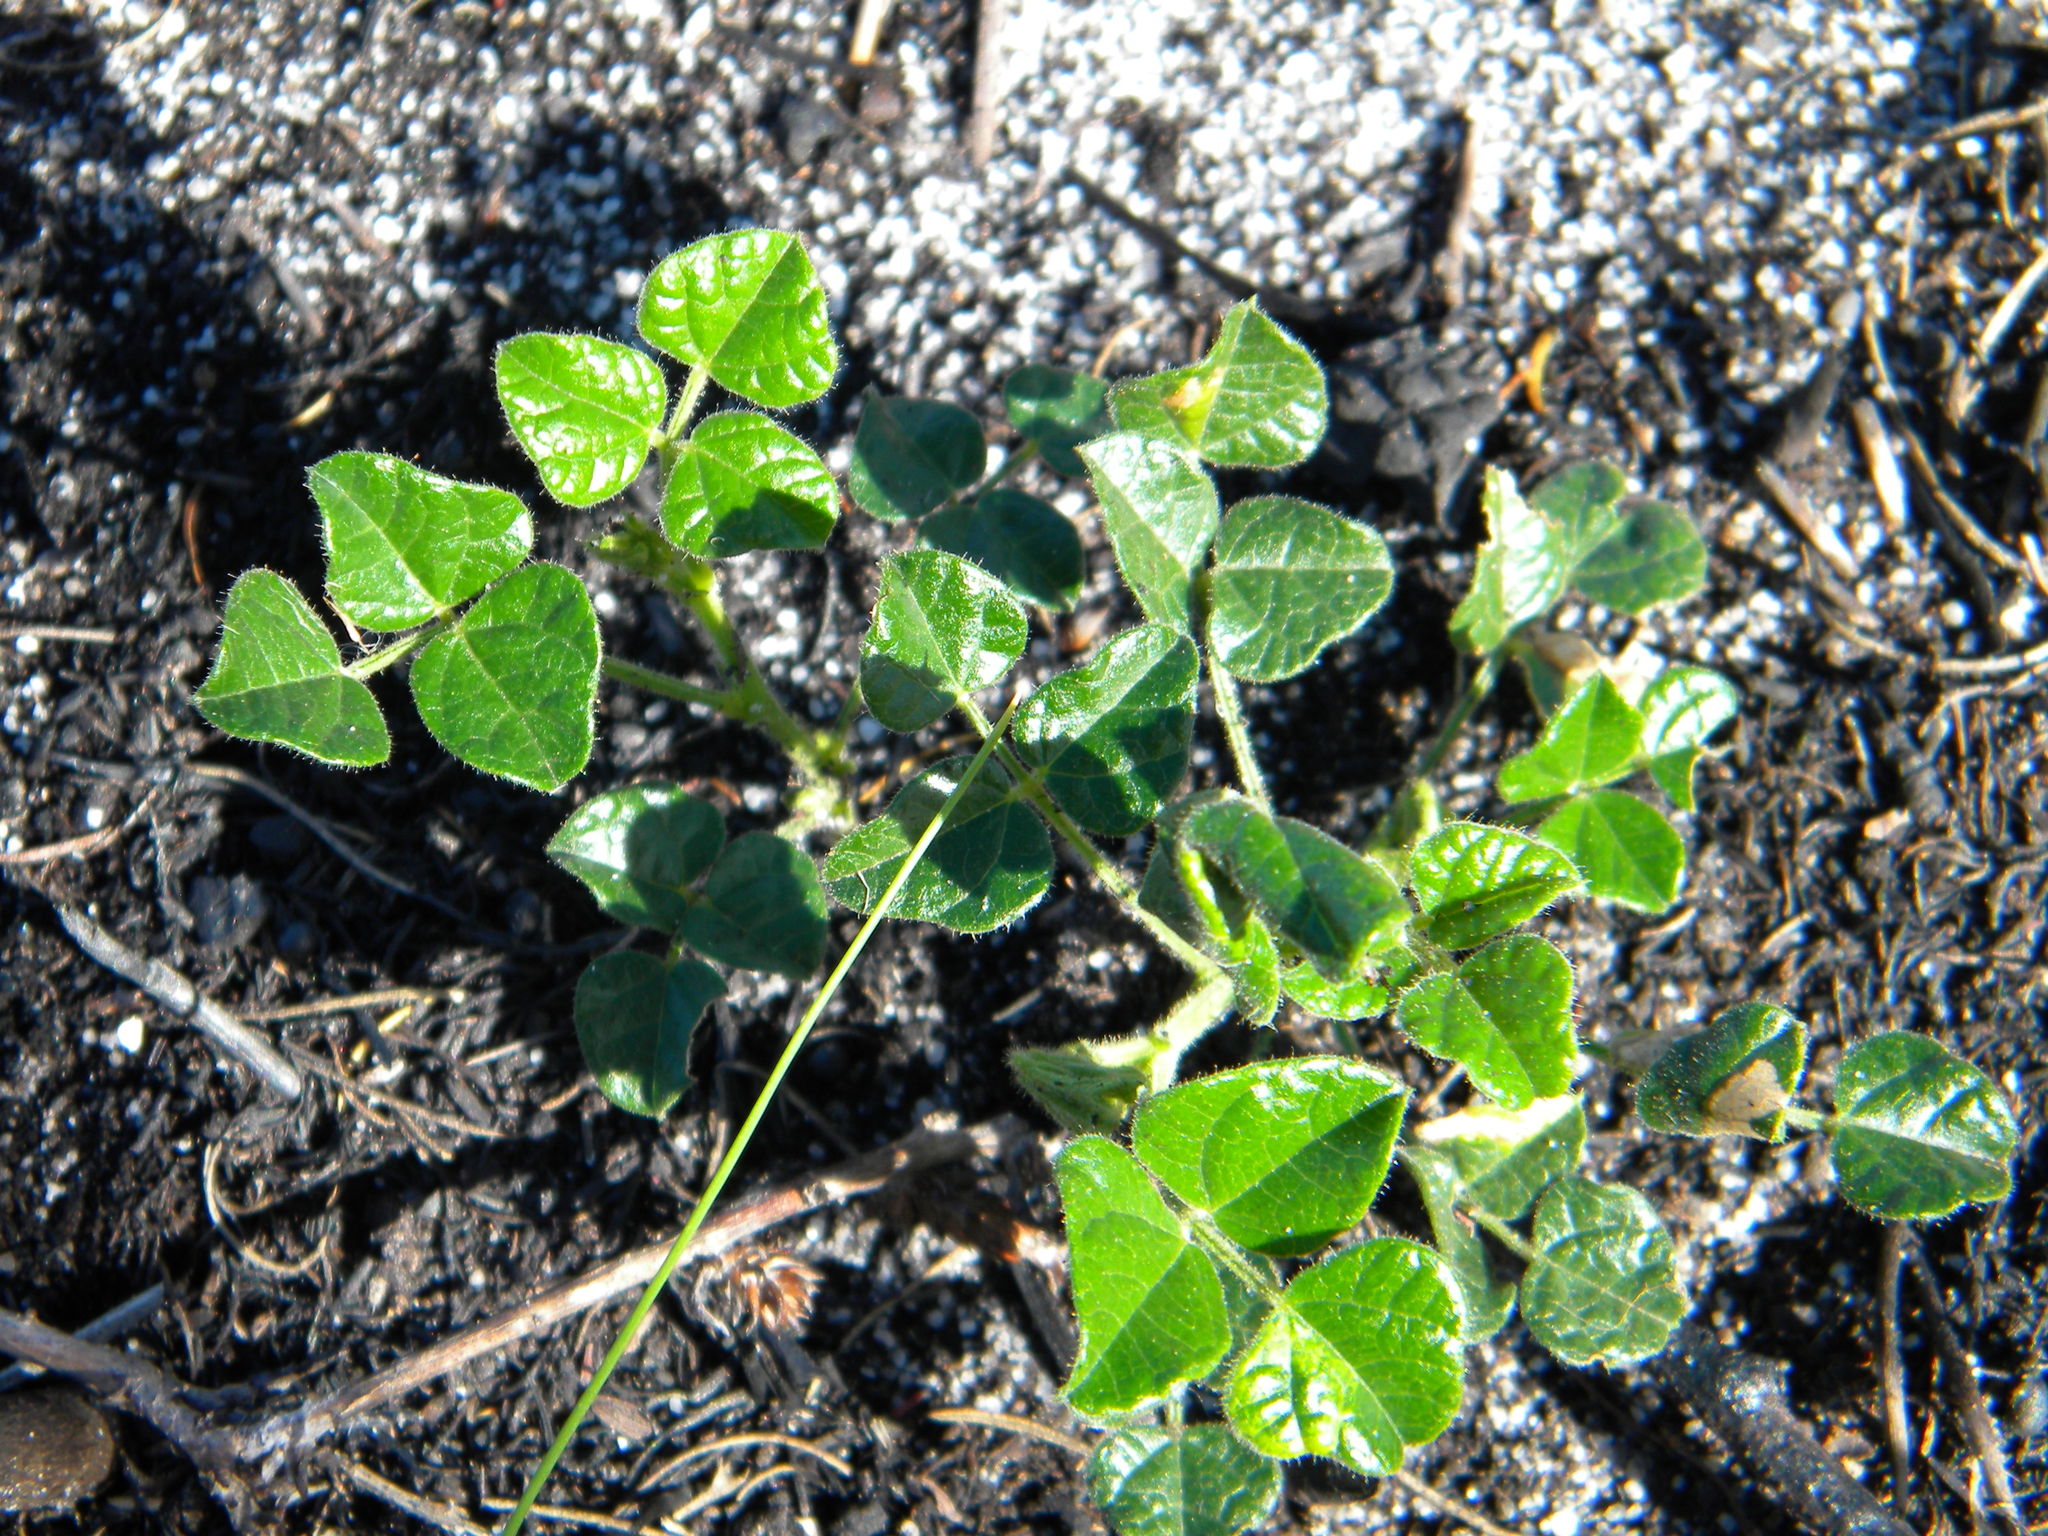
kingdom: Plantae
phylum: Tracheophyta
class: Magnoliopsida
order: Fabales
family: Fabaceae
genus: Bolusafra
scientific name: Bolusafra bituminosa
